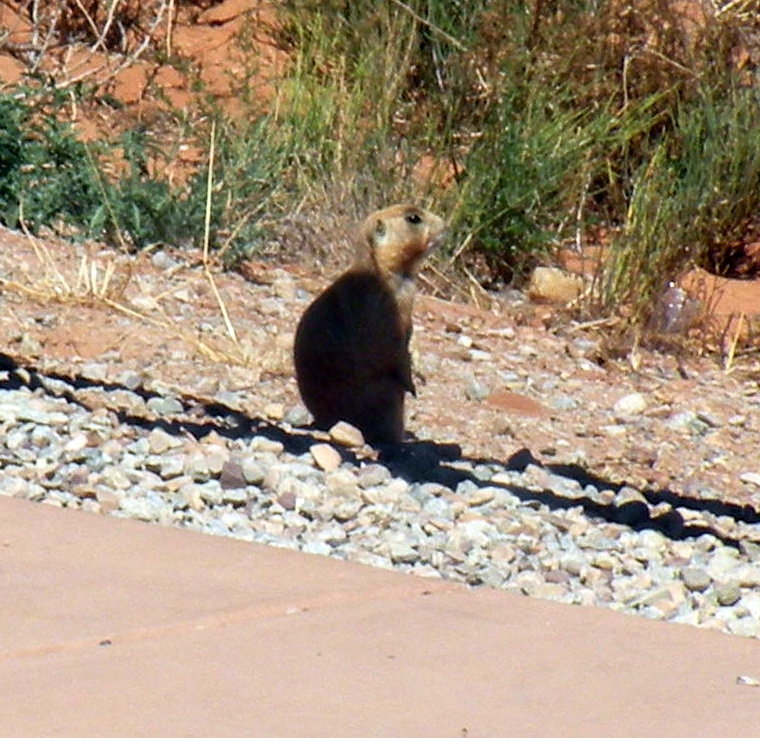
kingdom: Animalia
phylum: Chordata
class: Mammalia
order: Rodentia
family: Sciuridae
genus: Cynomys
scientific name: Cynomys leucurus
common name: White-tailed prairie dog
